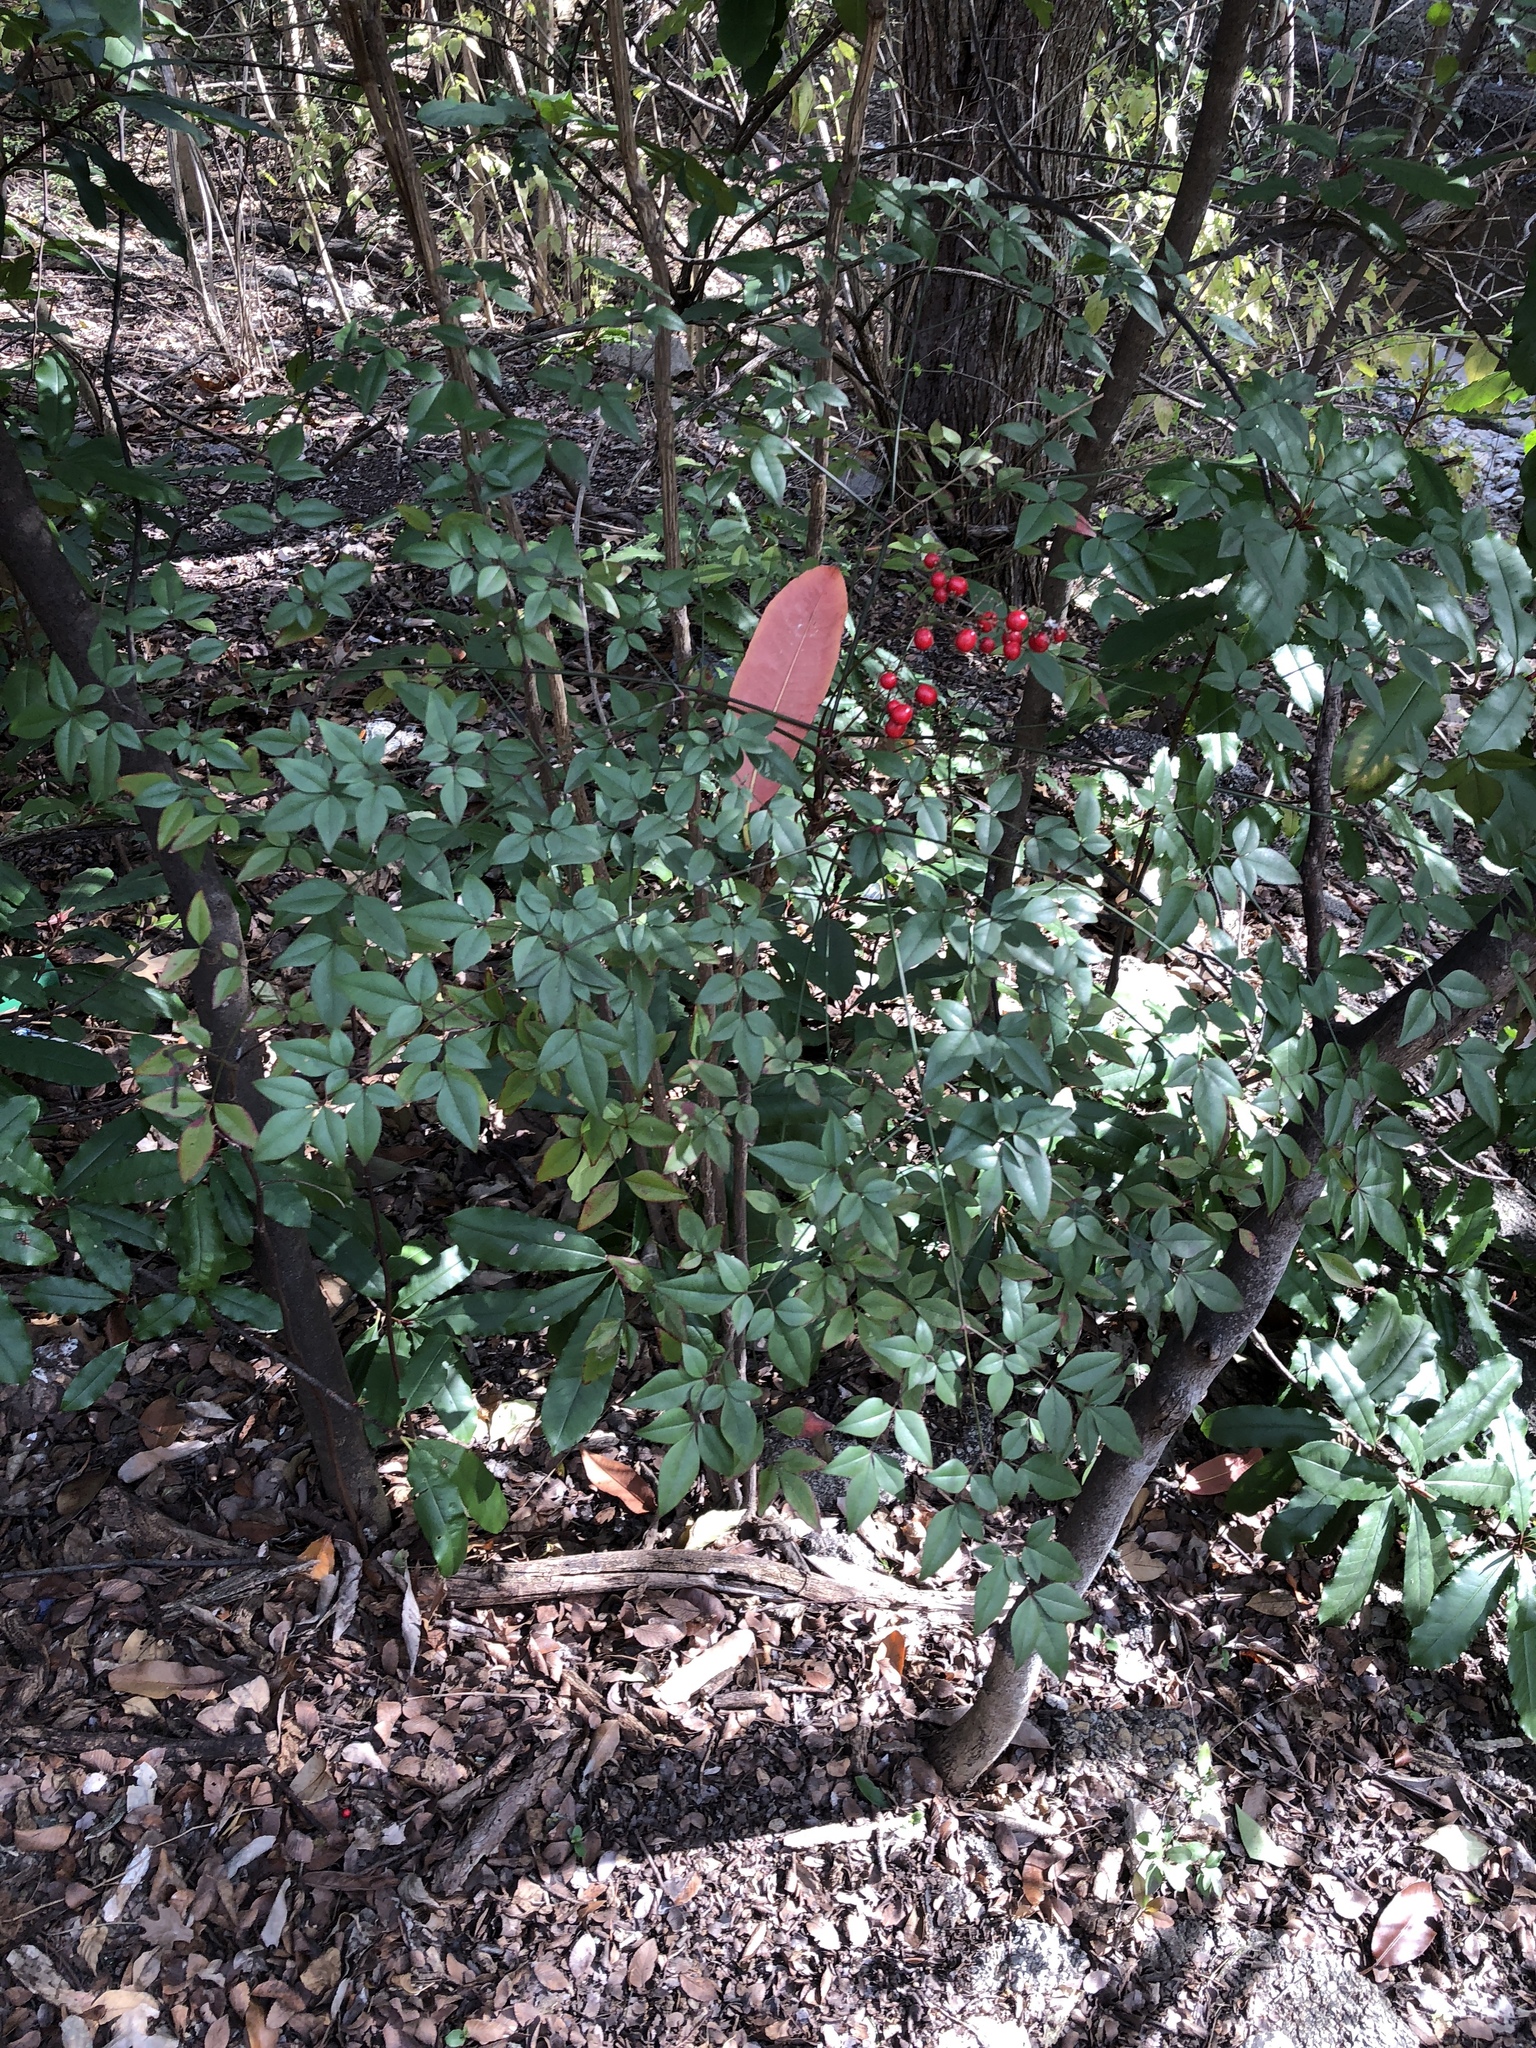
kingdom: Plantae
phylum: Tracheophyta
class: Magnoliopsida
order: Ranunculales
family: Berberidaceae
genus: Nandina
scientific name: Nandina domestica
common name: Sacred bamboo
